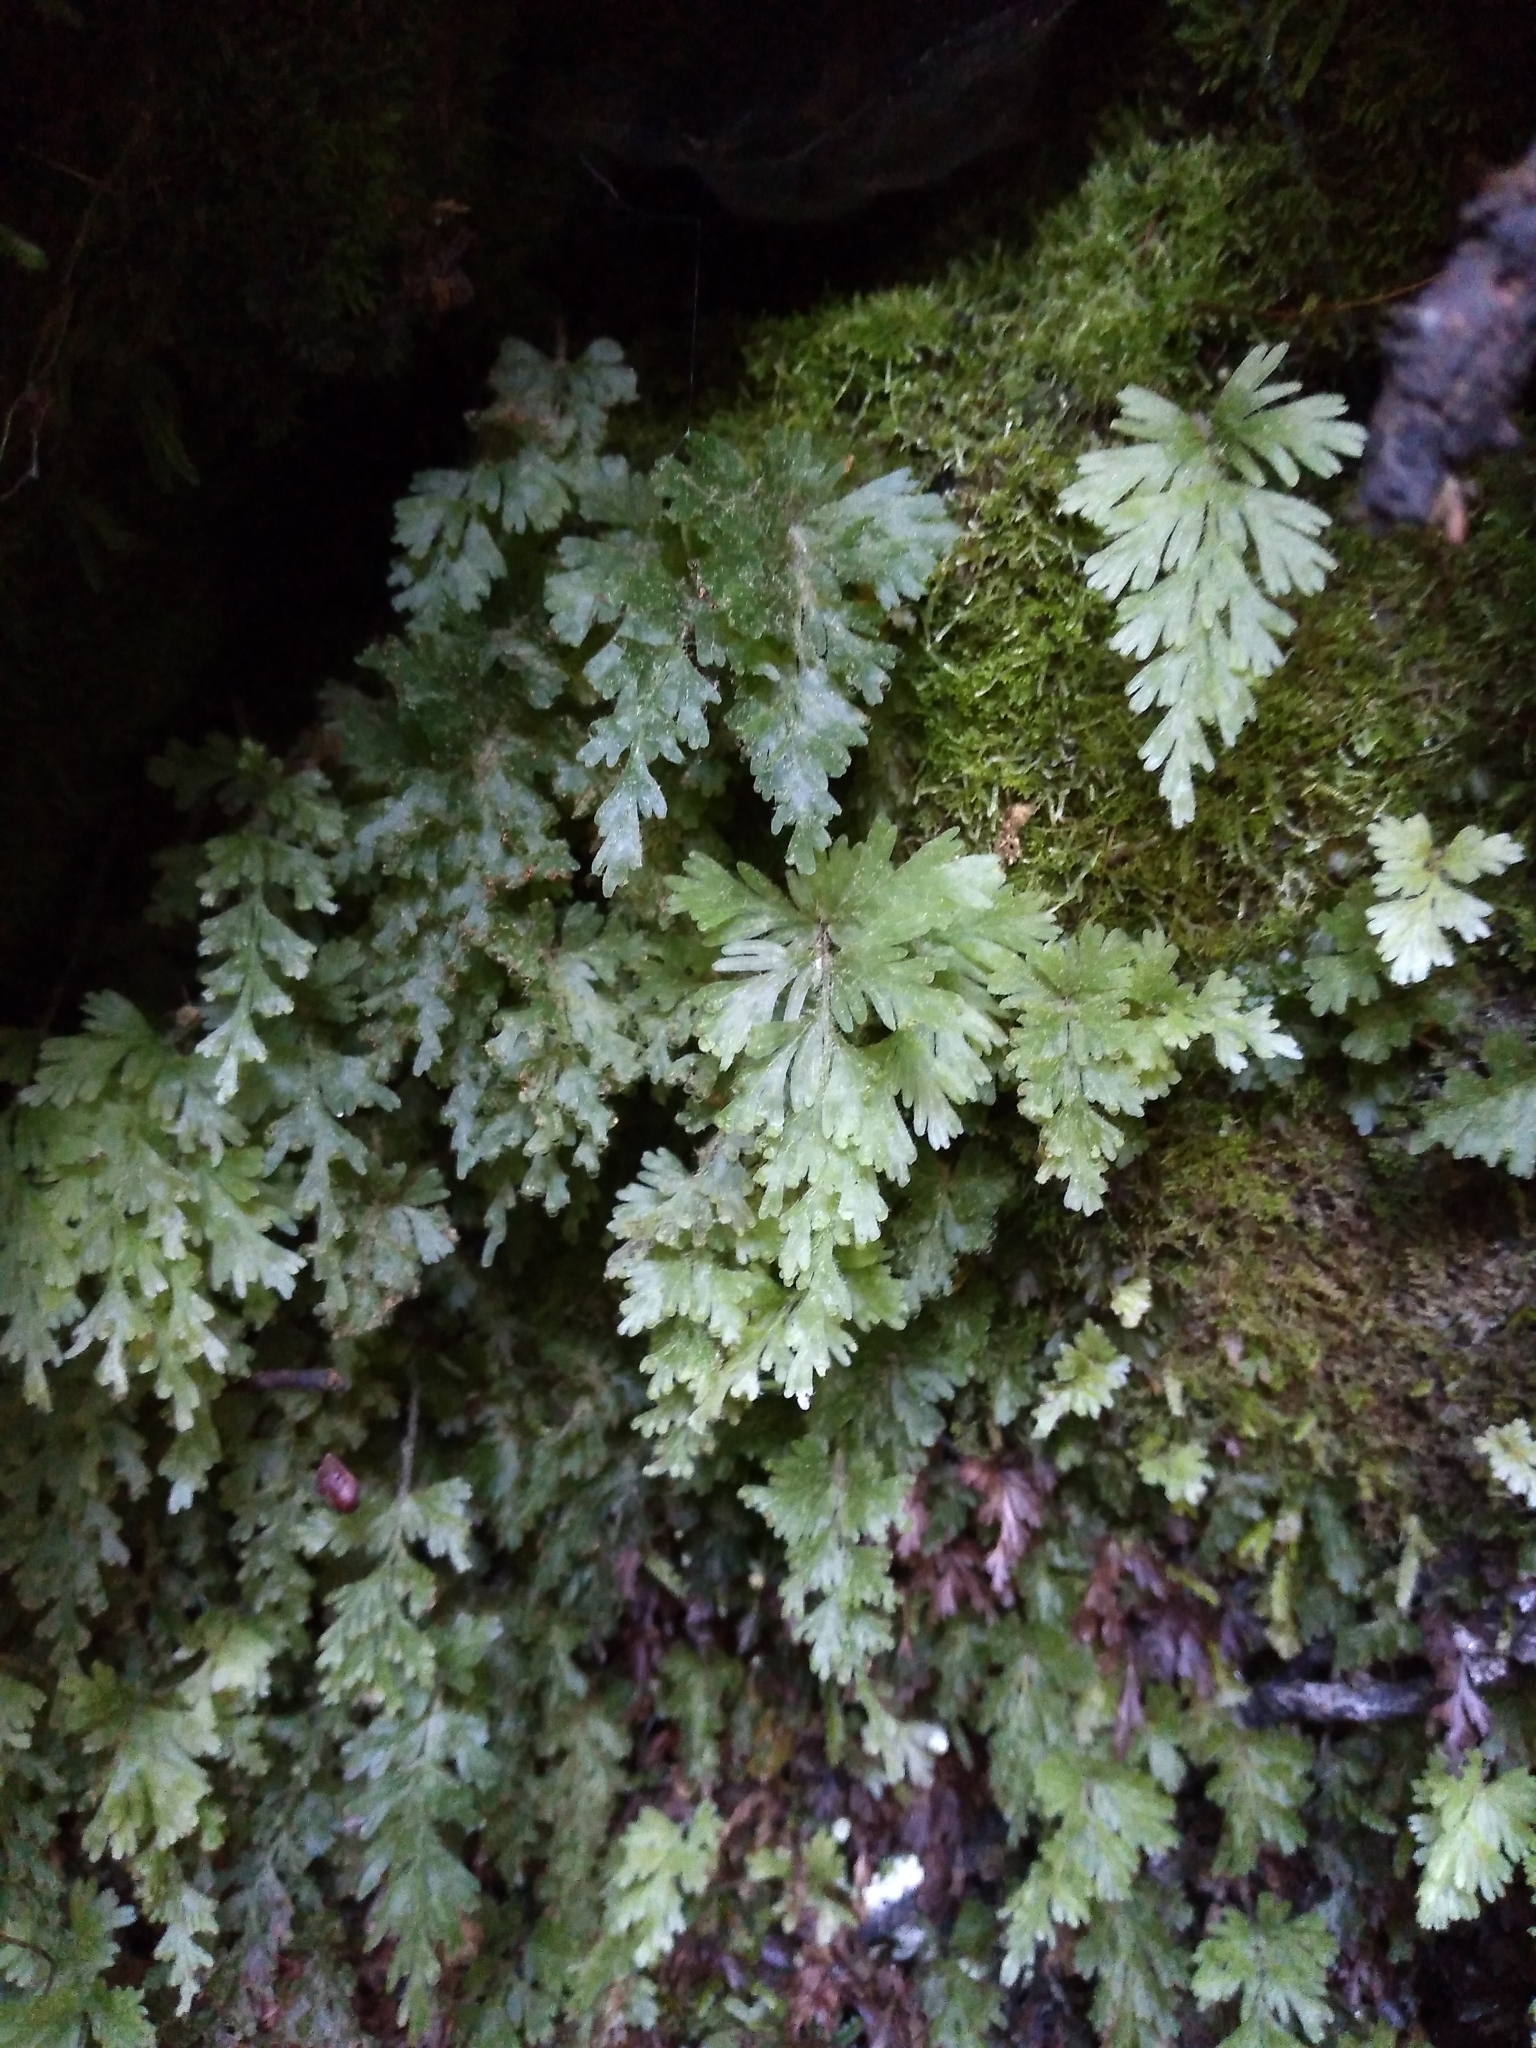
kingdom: Plantae
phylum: Tracheophyta
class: Polypodiopsida
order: Hymenophyllales
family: Hymenophyllaceae
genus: Hymenophyllum
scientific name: Hymenophyllum rufescens
